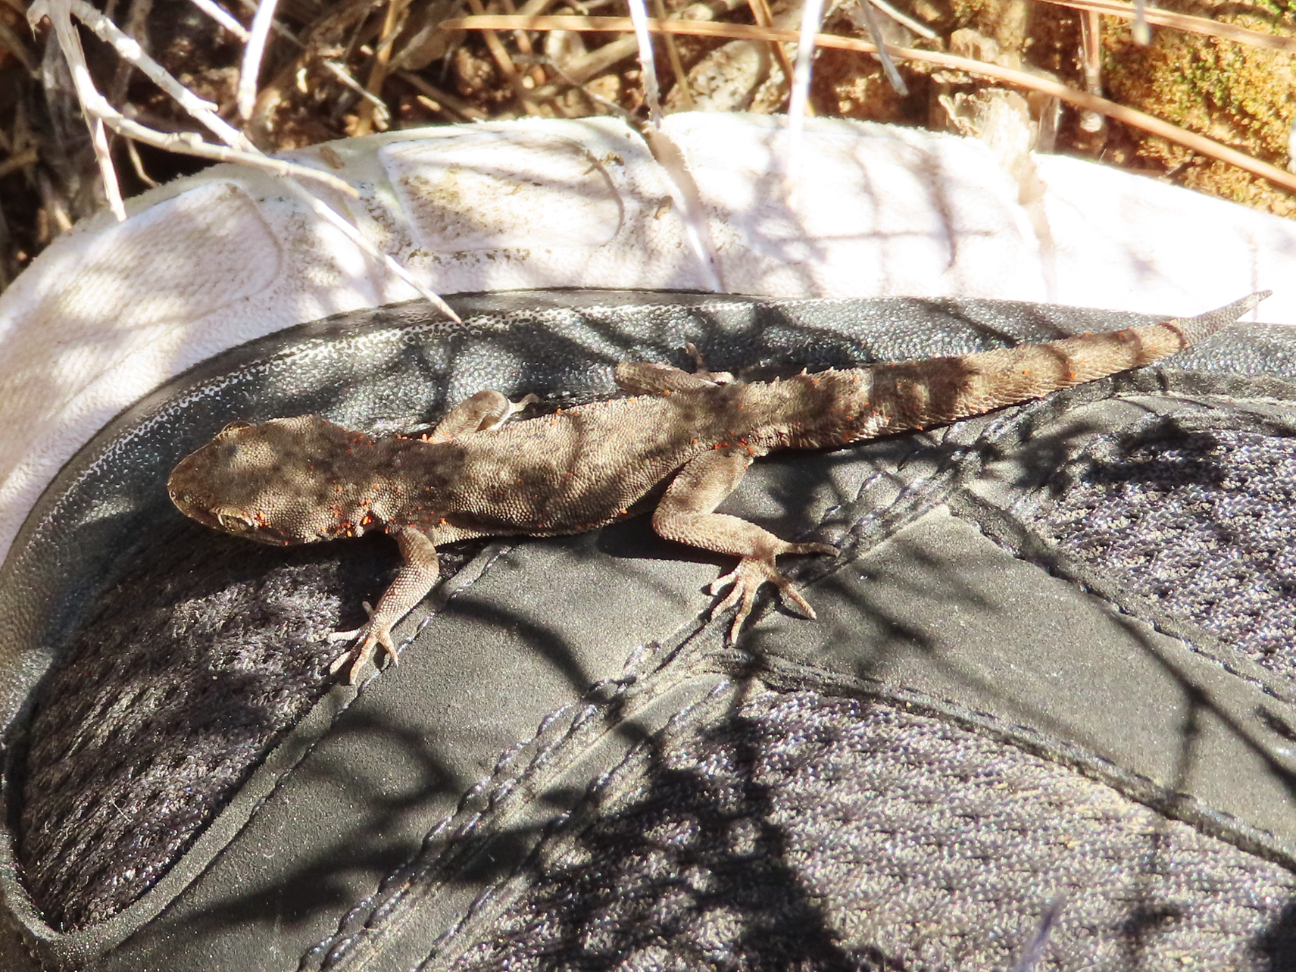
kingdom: Animalia
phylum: Chordata
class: Squamata
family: Gekkonidae
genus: Mediodactylus
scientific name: Mediodactylus oertzeni
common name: Mediterranean thin-toed gecko
